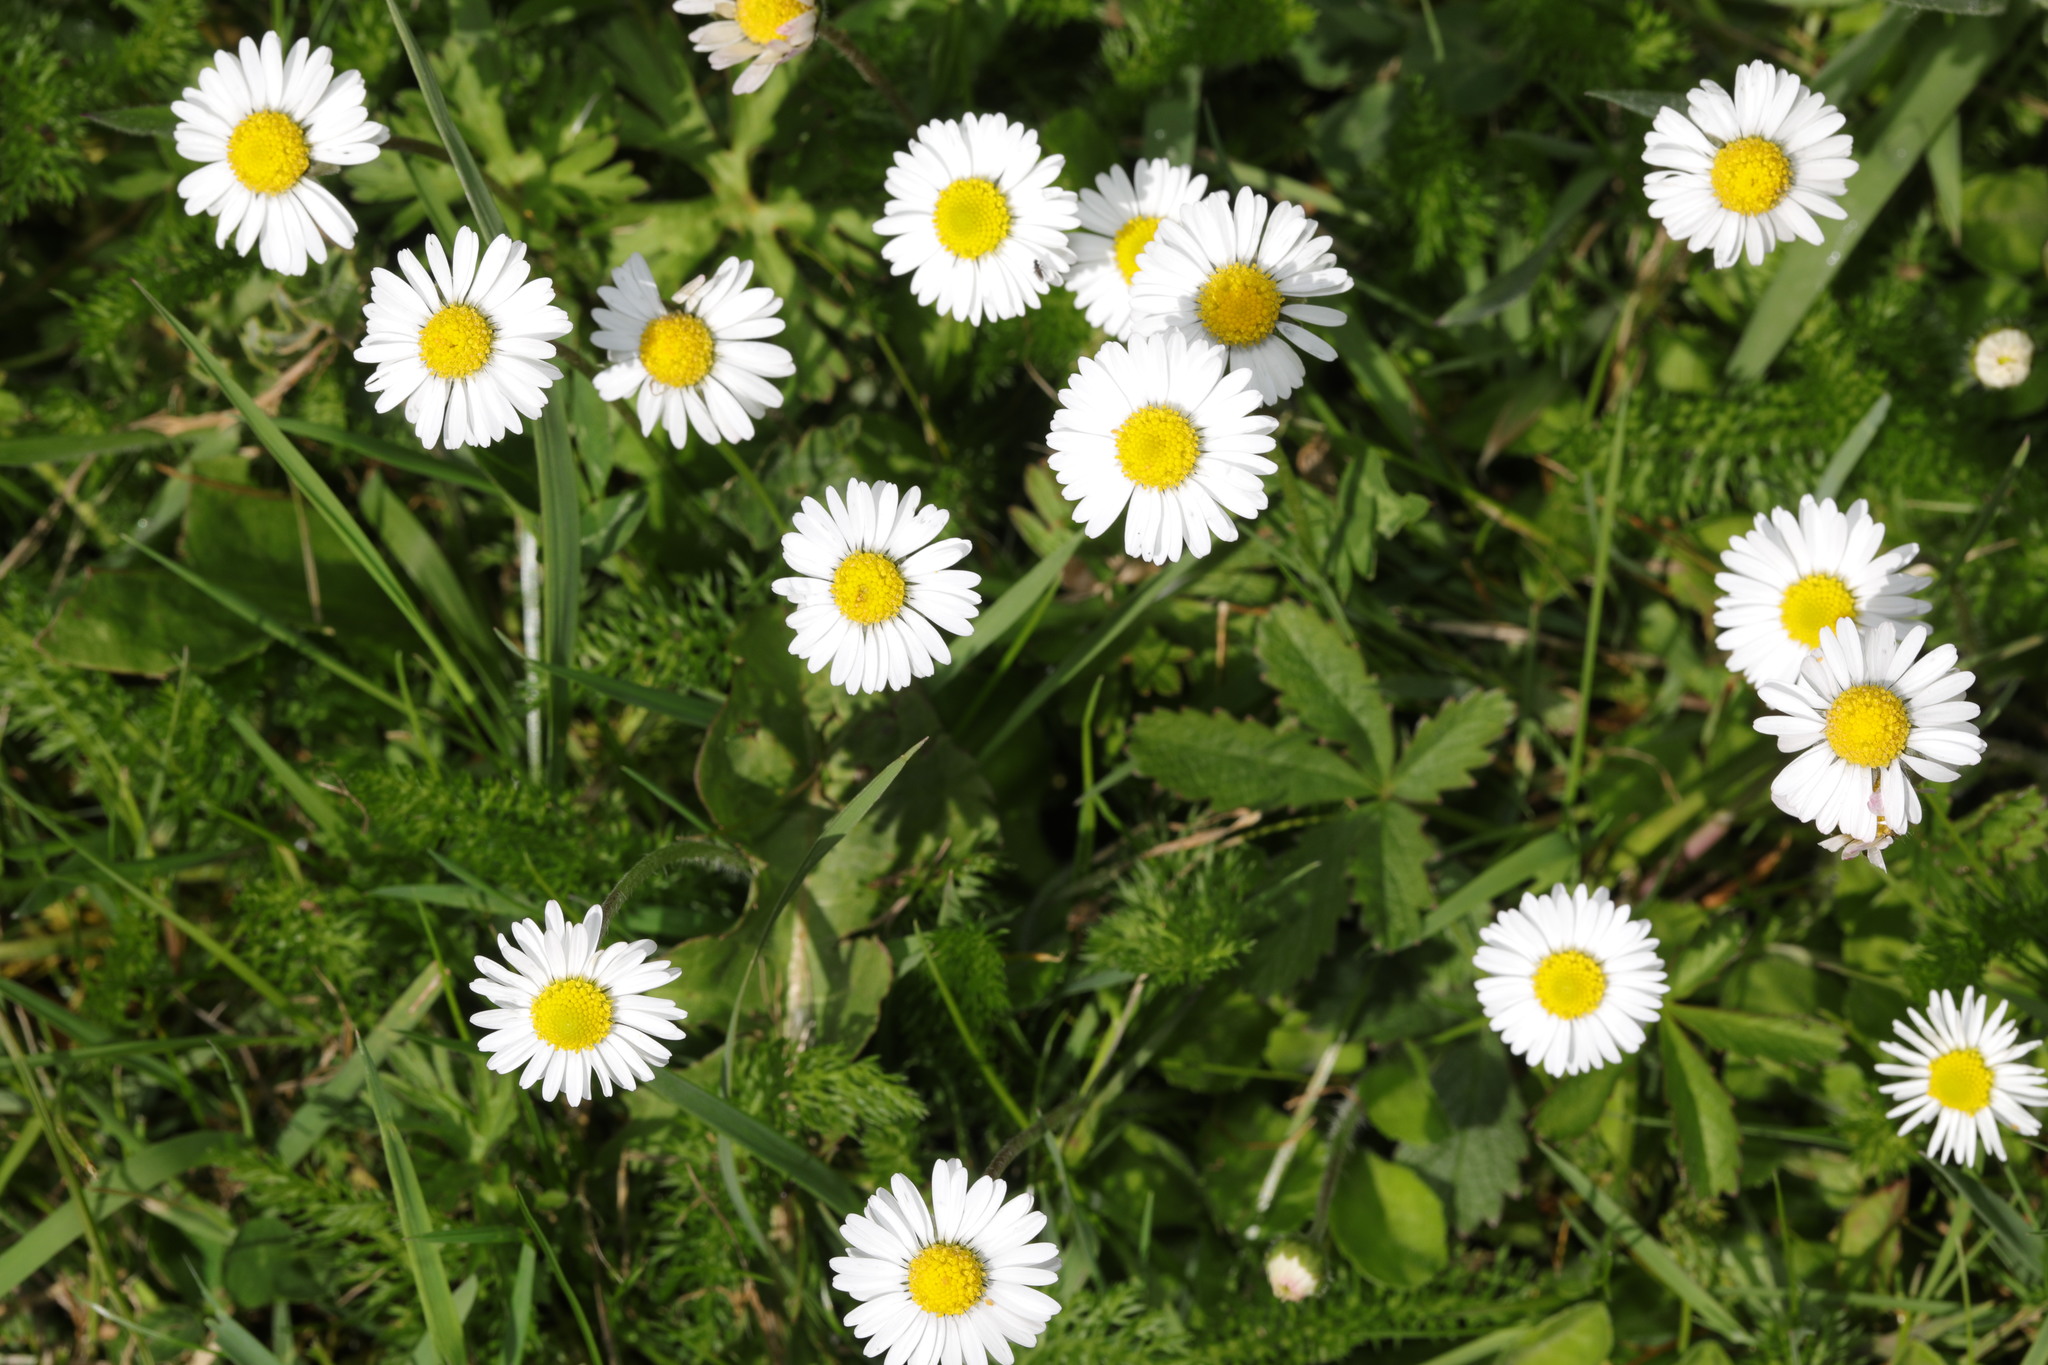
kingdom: Plantae
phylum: Tracheophyta
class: Magnoliopsida
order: Asterales
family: Asteraceae
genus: Bellis
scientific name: Bellis perennis
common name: Lawndaisy
